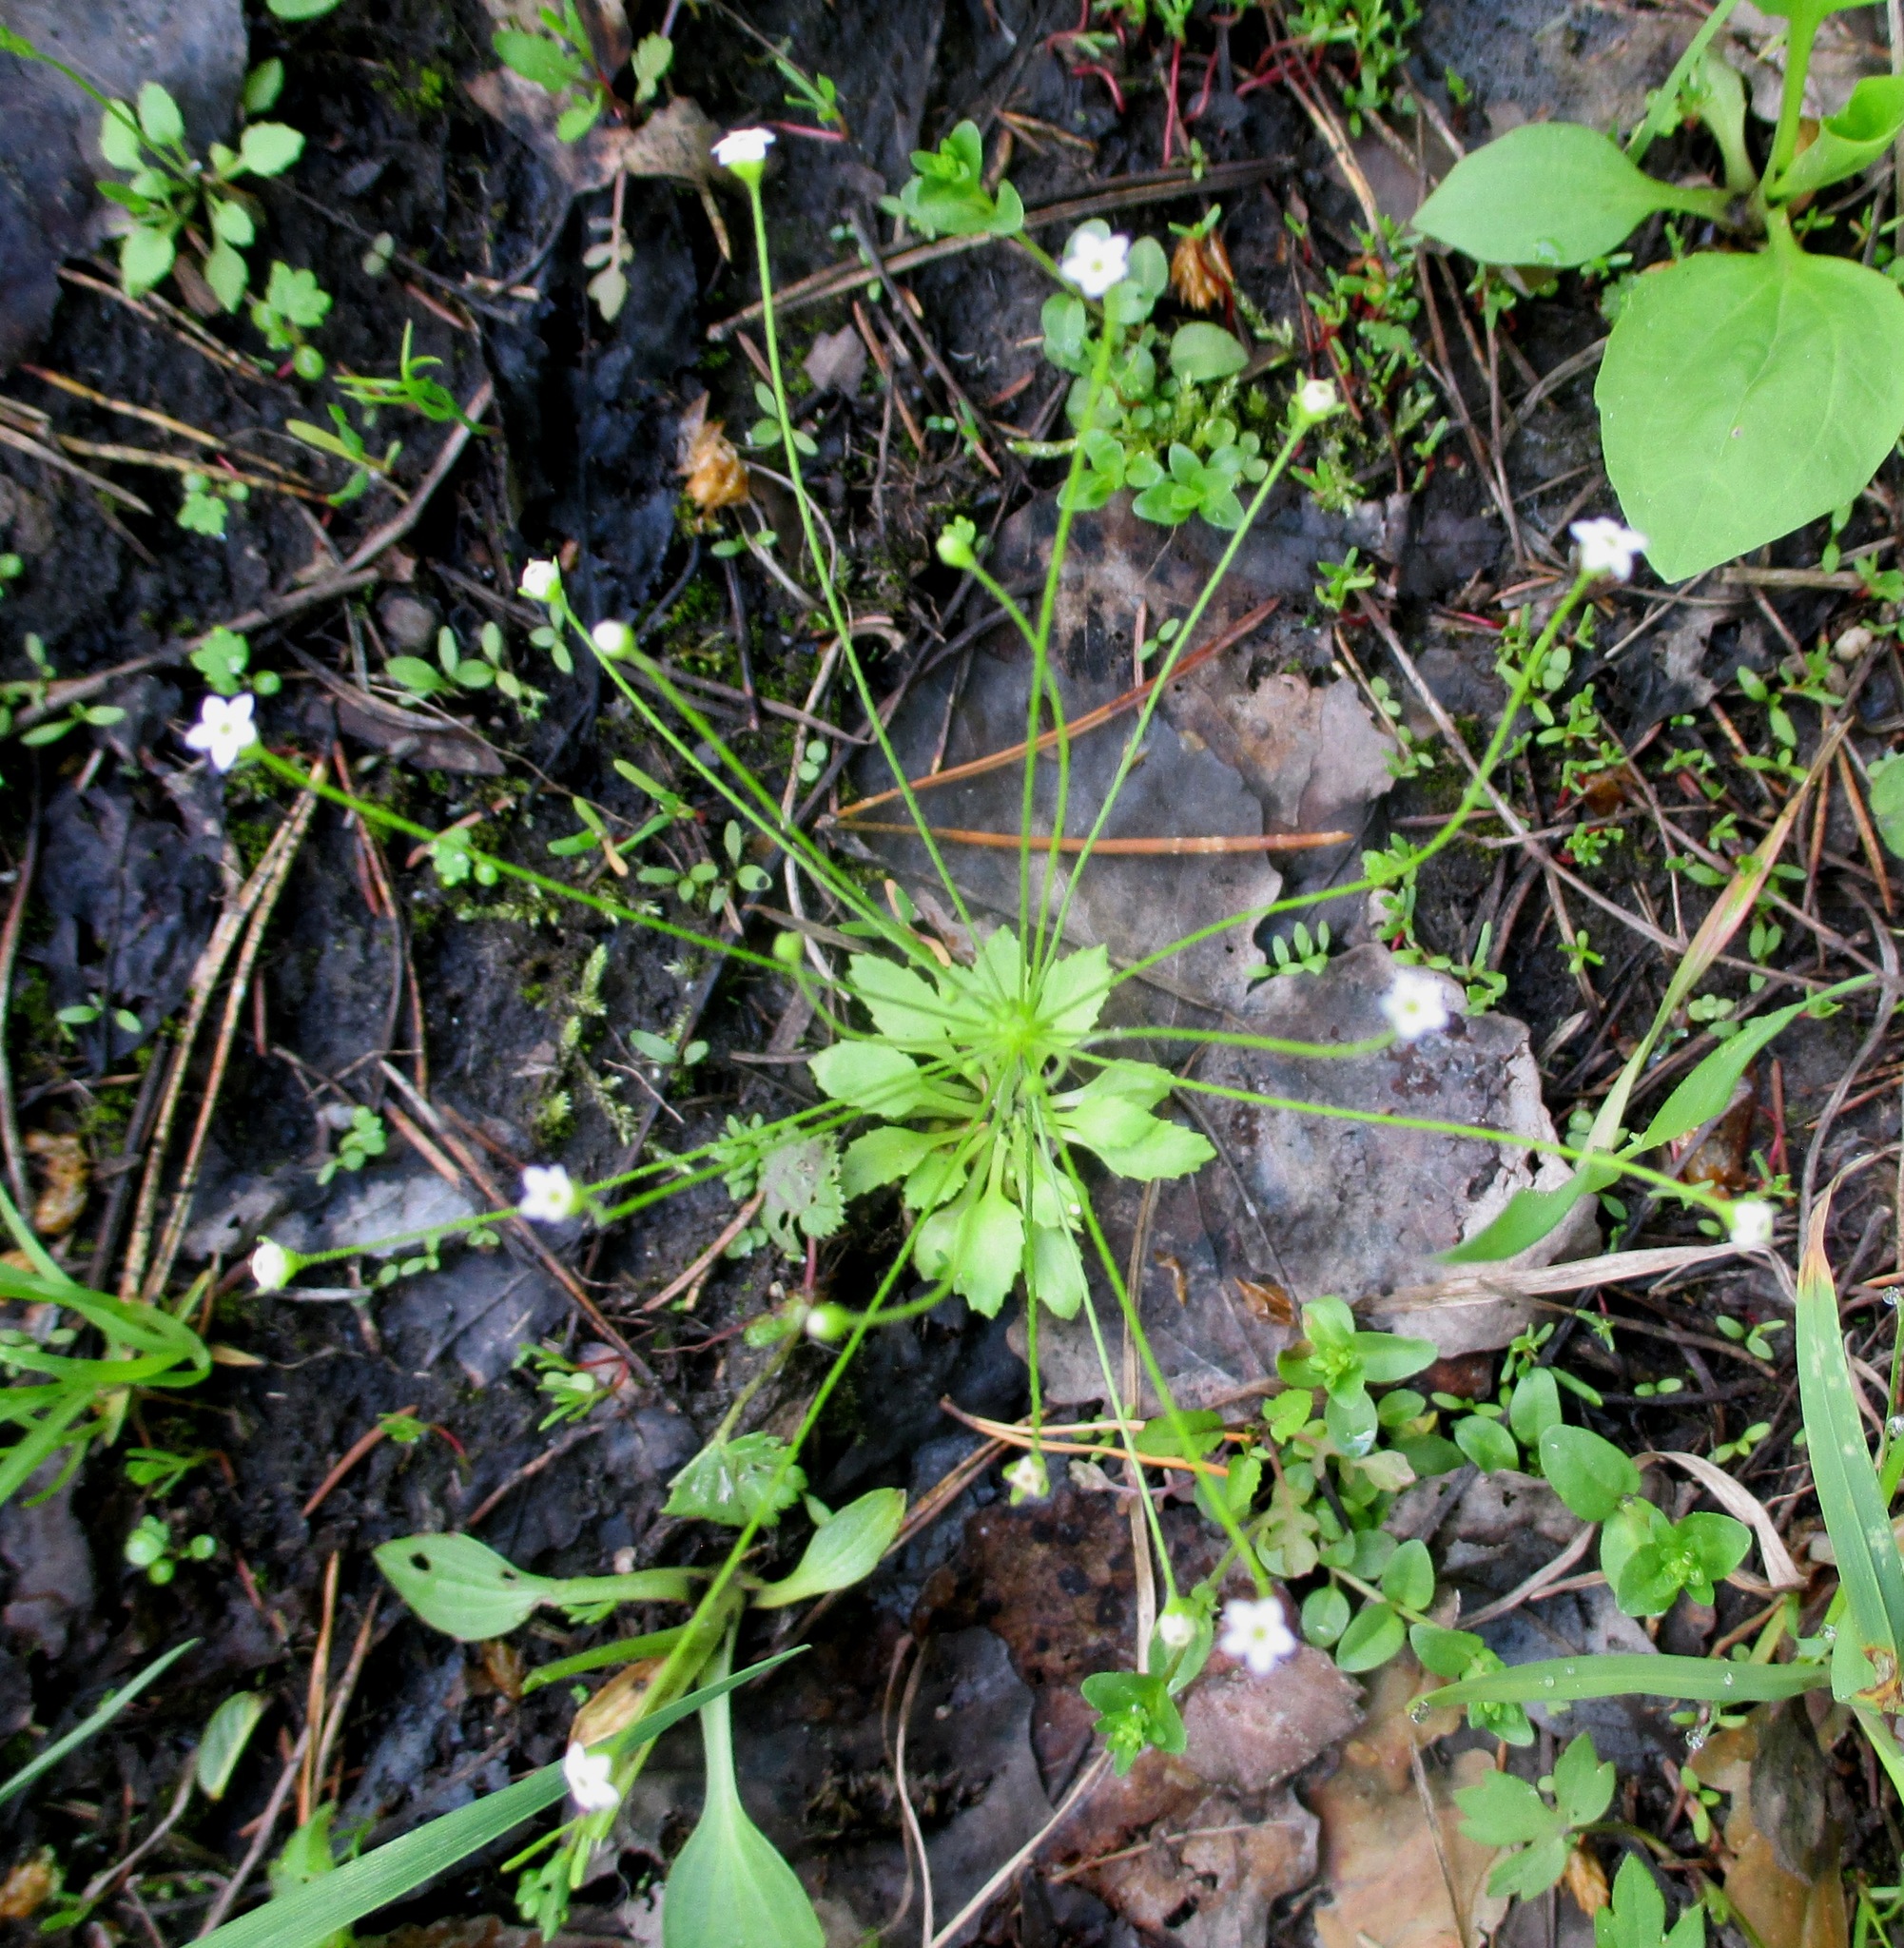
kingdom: Plantae
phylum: Tracheophyta
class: Magnoliopsida
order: Ericales
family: Primulaceae
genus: Androsace
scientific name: Androsace filiformis
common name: Filiform rock jasmine
